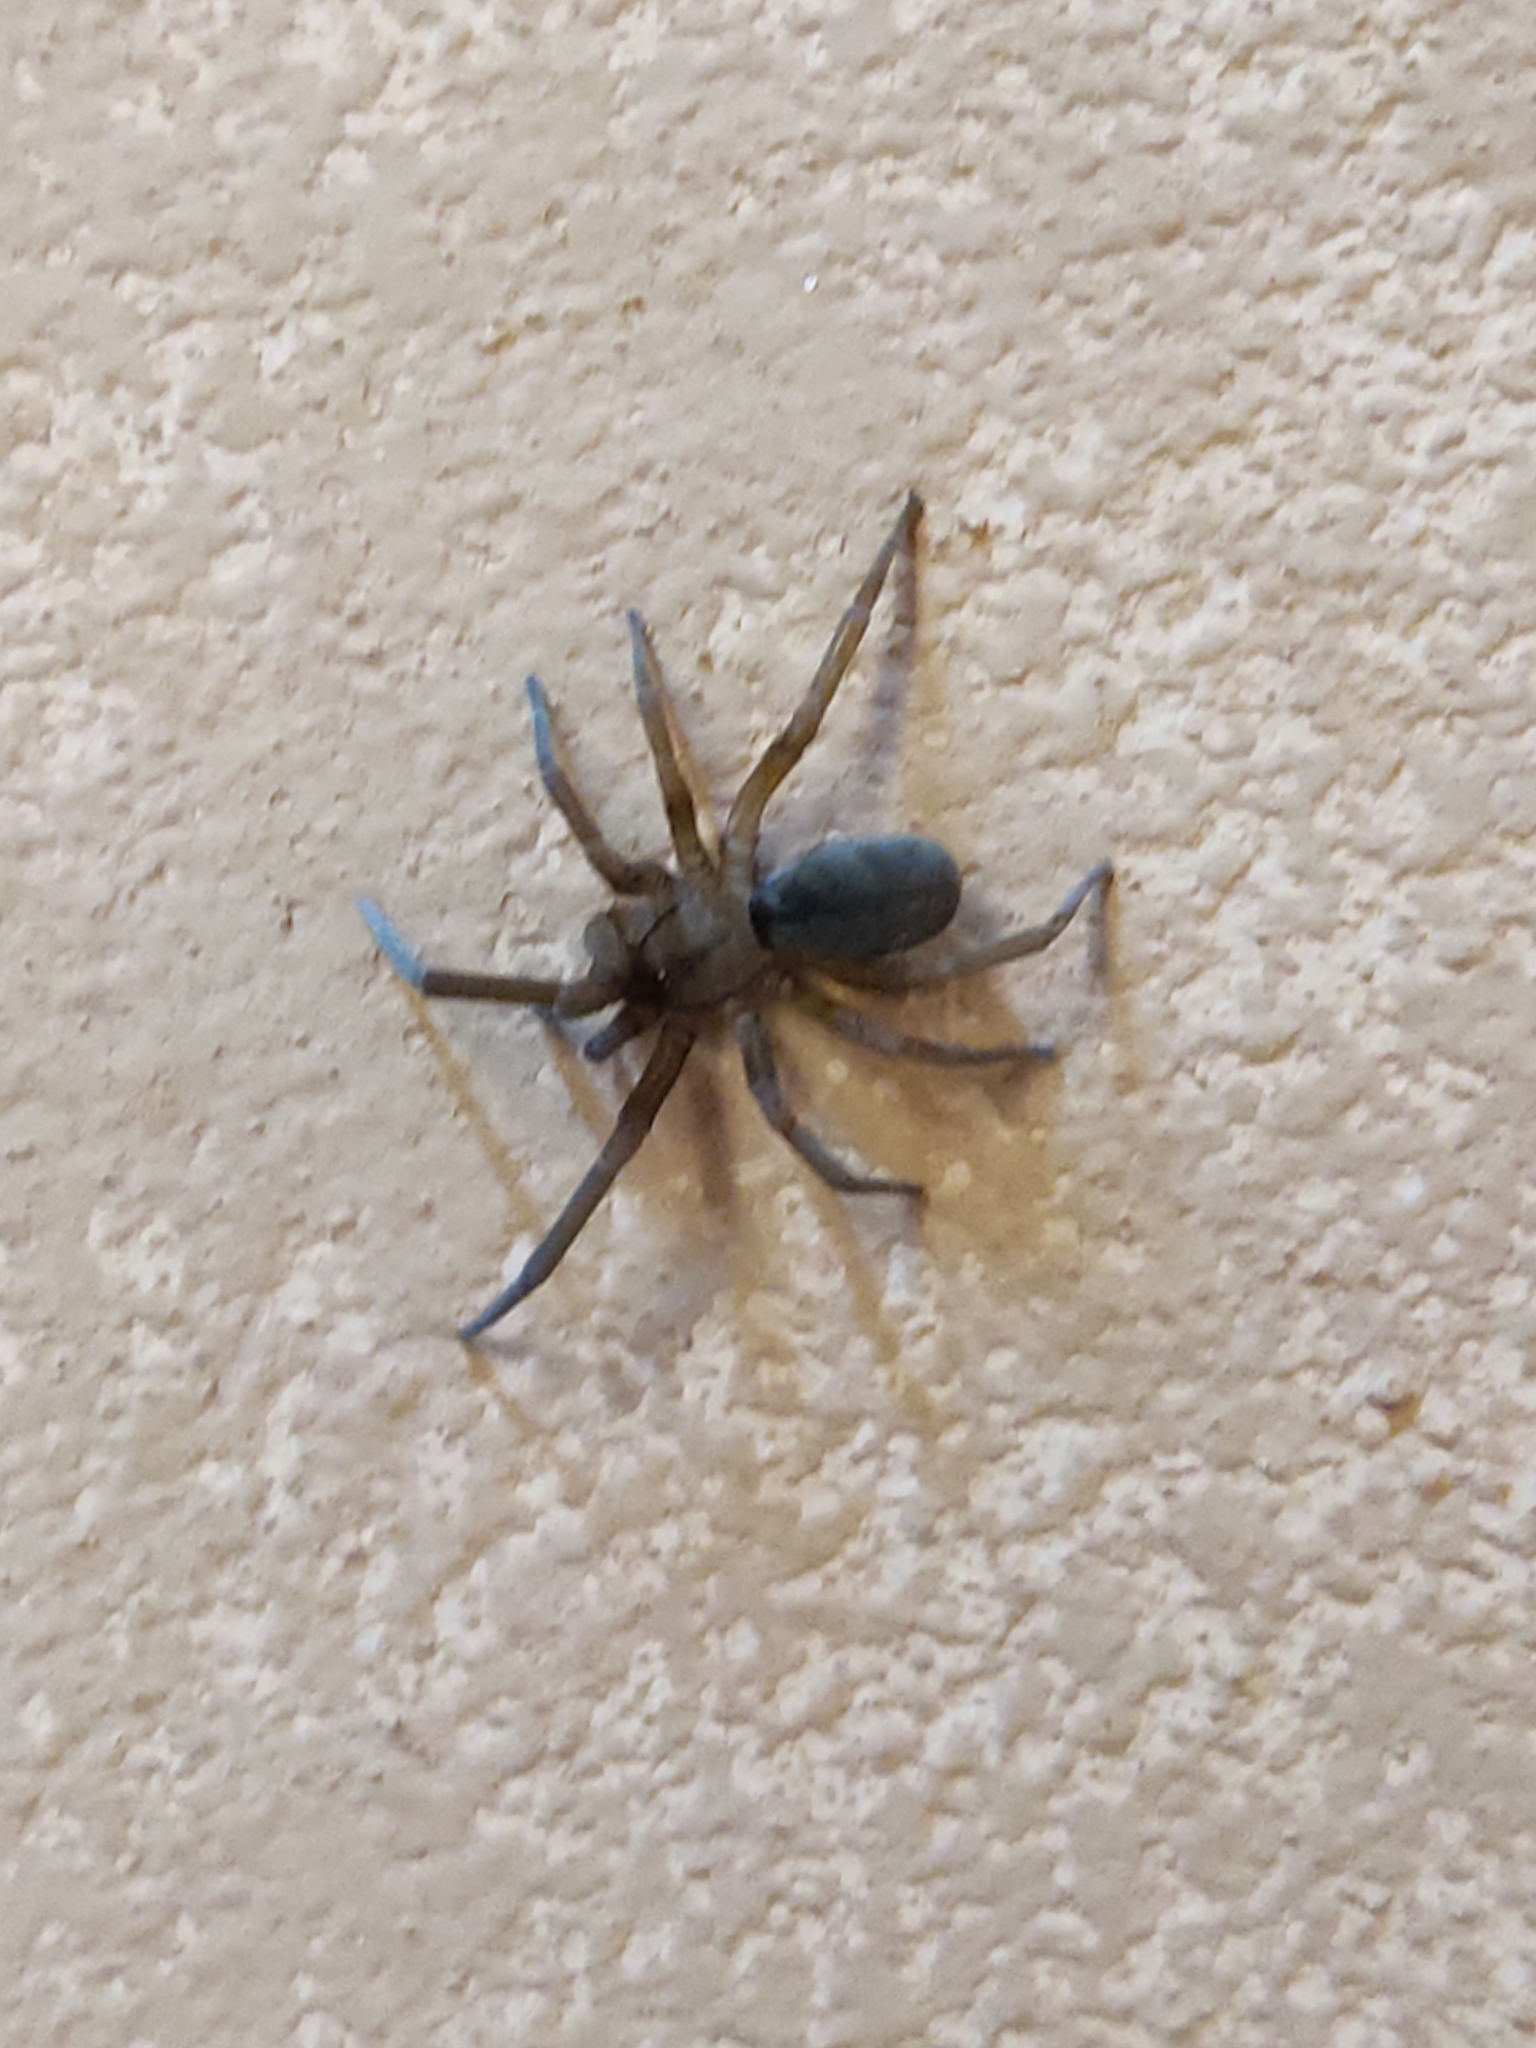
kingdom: Animalia
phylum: Arthropoda
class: Arachnida
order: Araneae
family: Filistatidae
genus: Filistata
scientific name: Filistata insidiatrix
